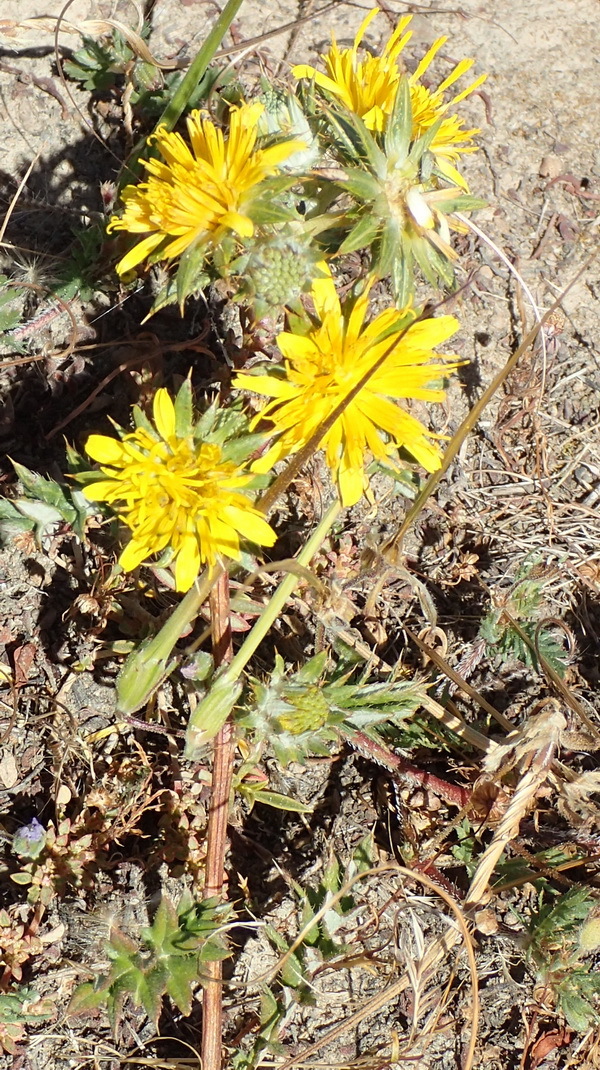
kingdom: Plantae
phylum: Tracheophyta
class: Magnoliopsida
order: Asterales
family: Asteraceae
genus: Berkheya
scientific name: Berkheya pinnatifida
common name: Lobed african thistle
